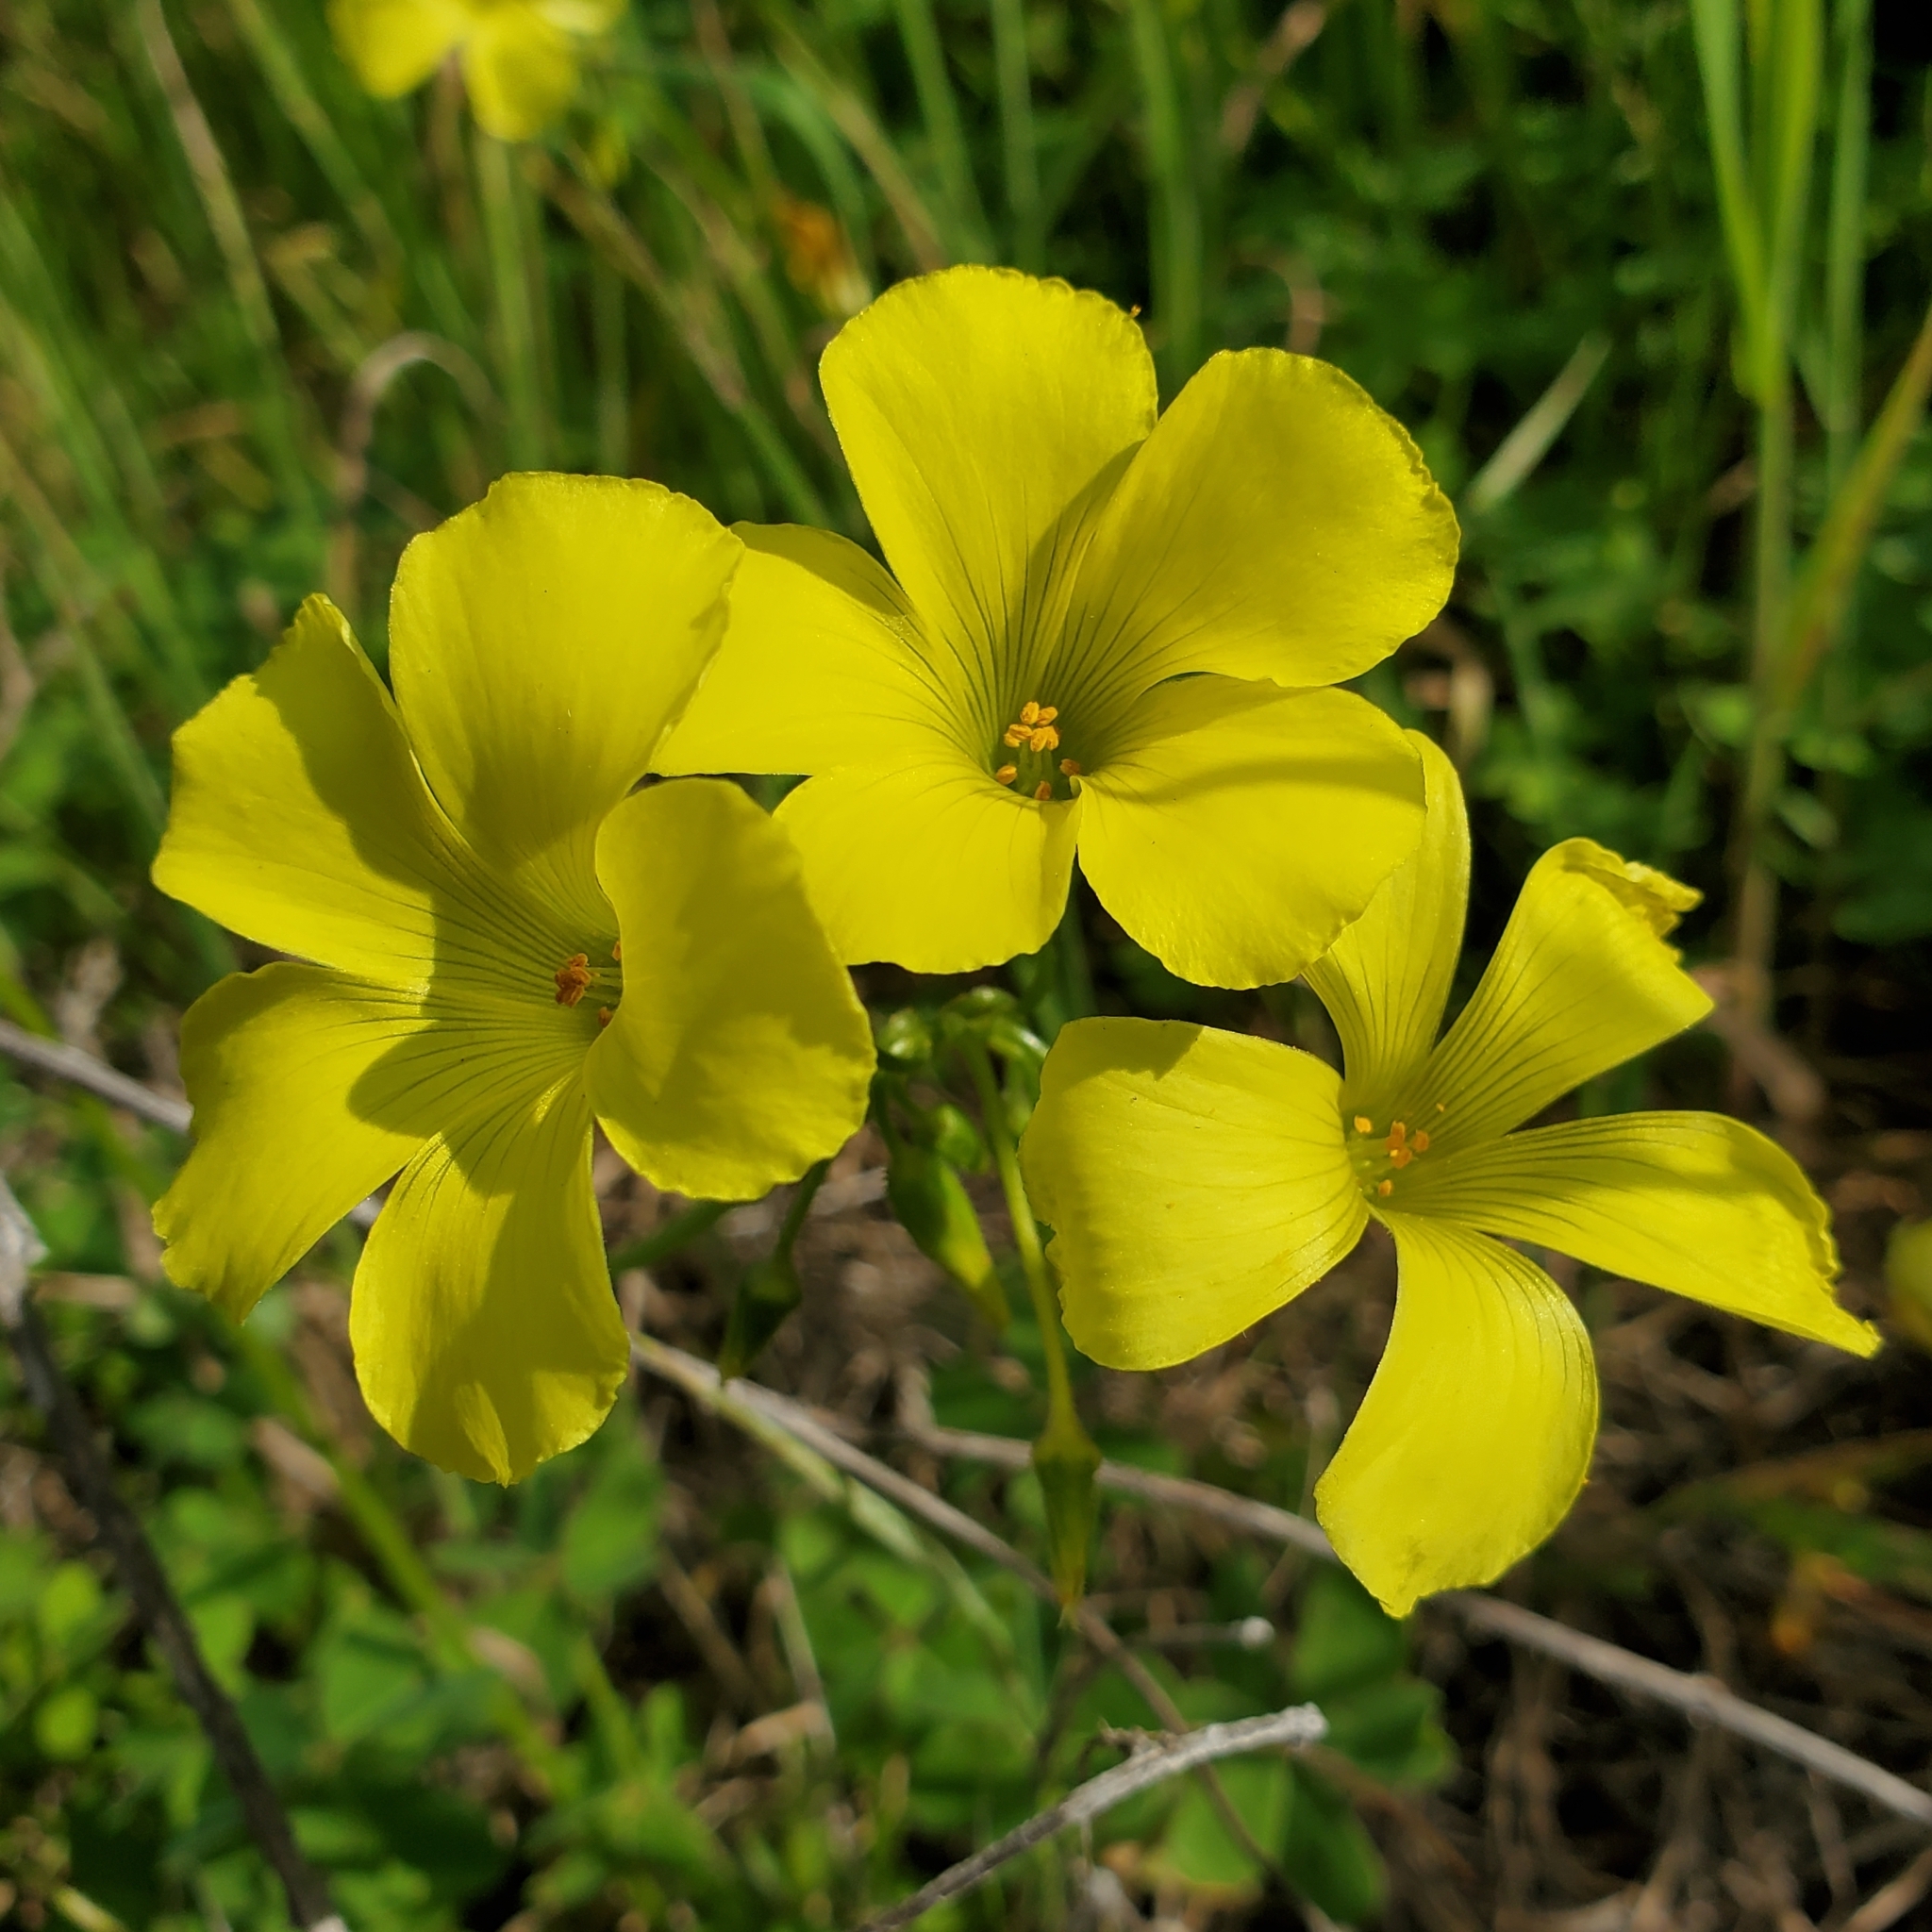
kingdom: Plantae
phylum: Tracheophyta
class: Magnoliopsida
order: Oxalidales
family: Oxalidaceae
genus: Oxalis
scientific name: Oxalis pes-caprae
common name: Bermuda-buttercup
